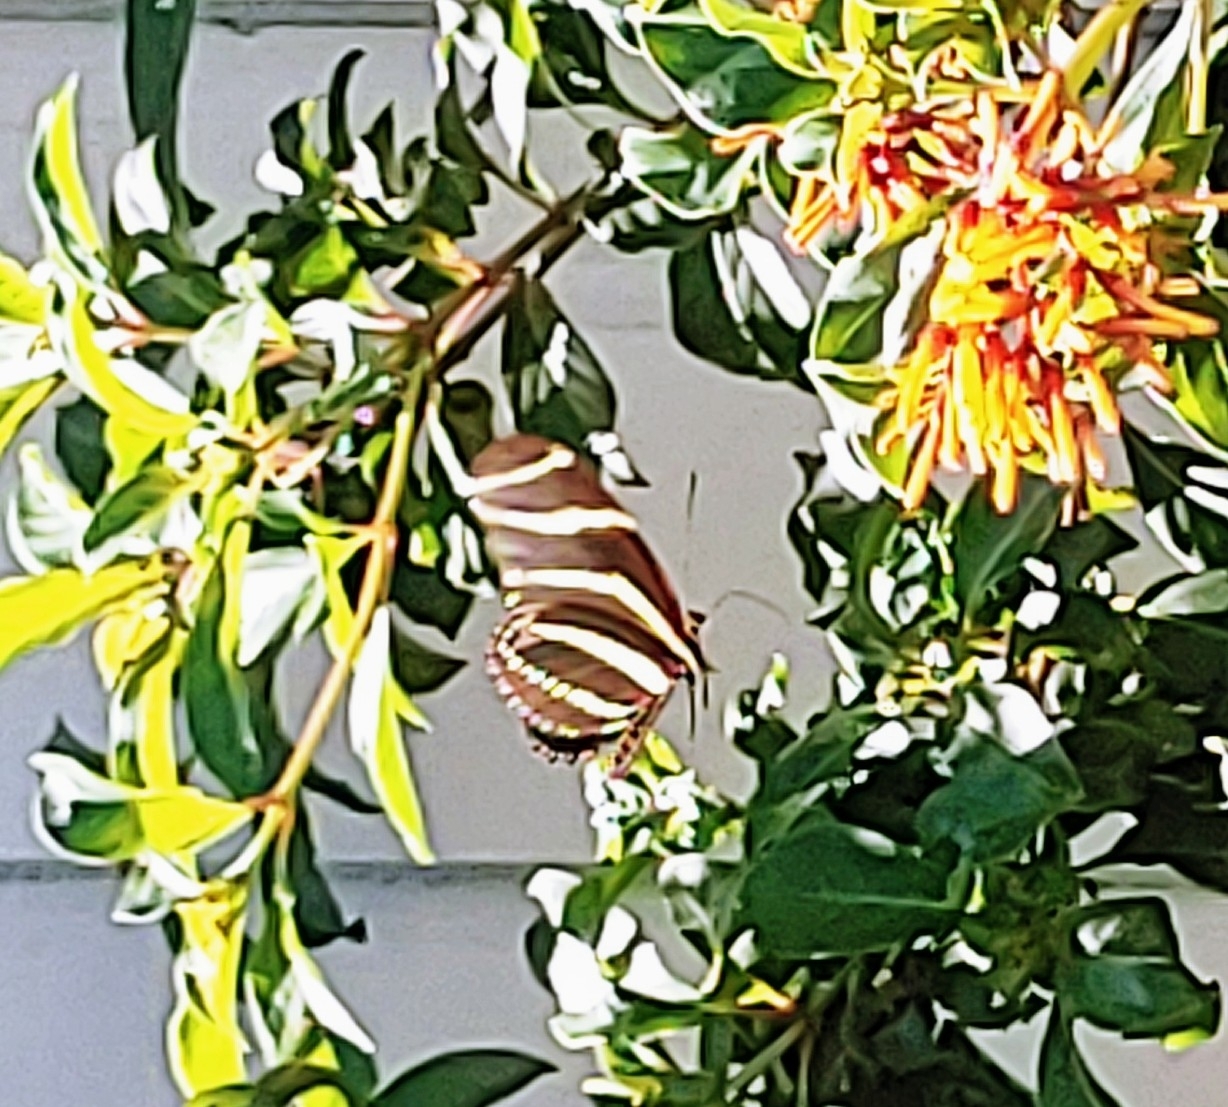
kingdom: Animalia
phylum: Arthropoda
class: Insecta
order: Lepidoptera
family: Nymphalidae
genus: Heliconius
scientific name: Heliconius charithonia
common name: Zebra long wing
